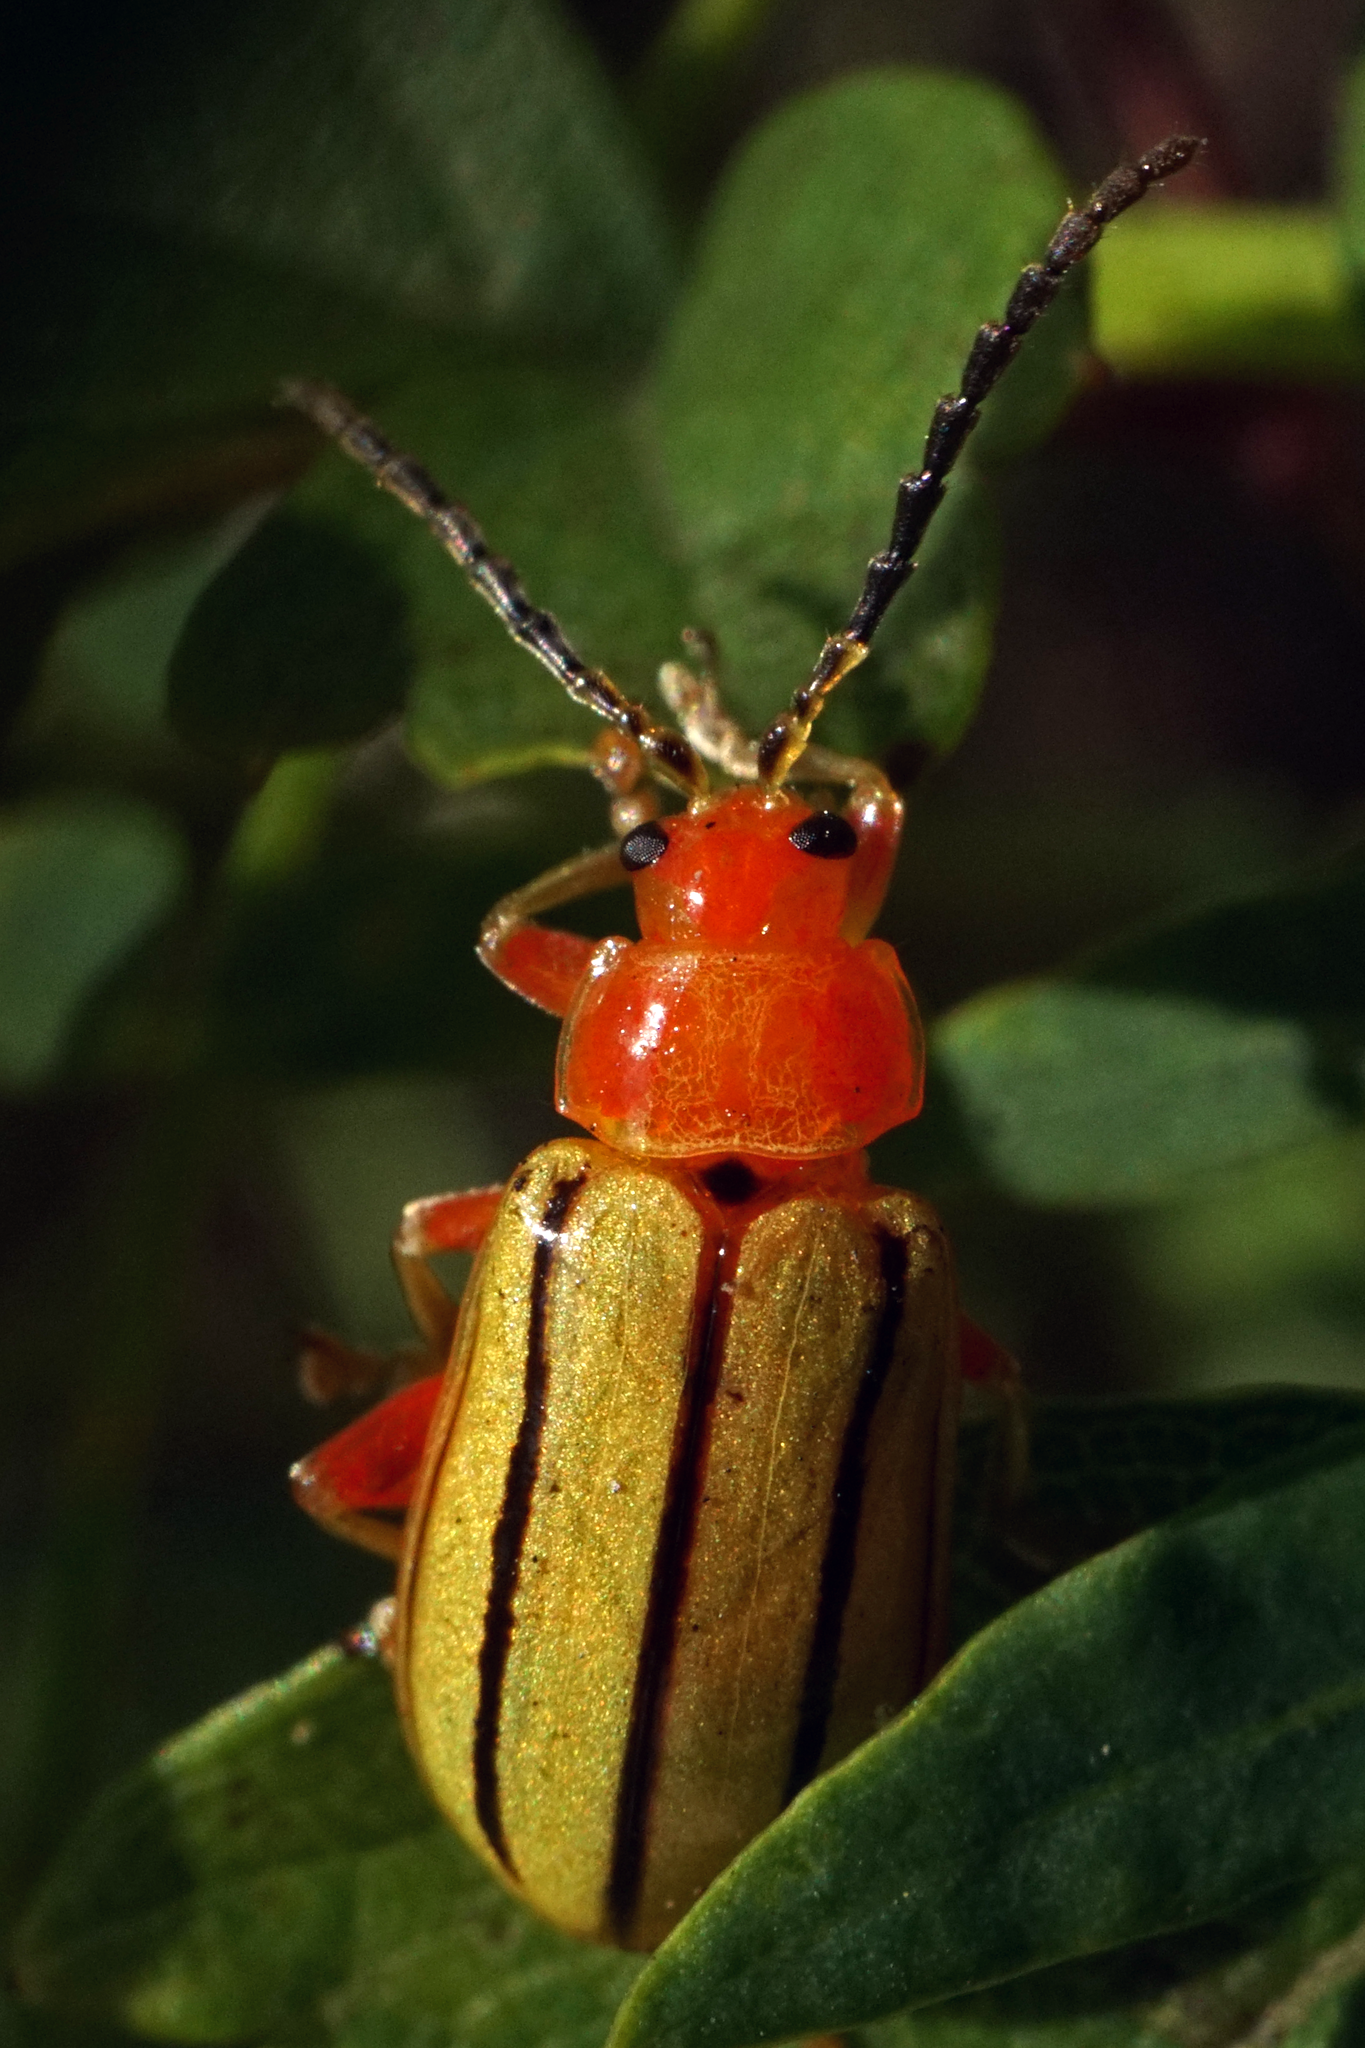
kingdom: Animalia
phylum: Arthropoda
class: Insecta
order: Coleoptera
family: Chrysomelidae
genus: Disonycha
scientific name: Disonycha
